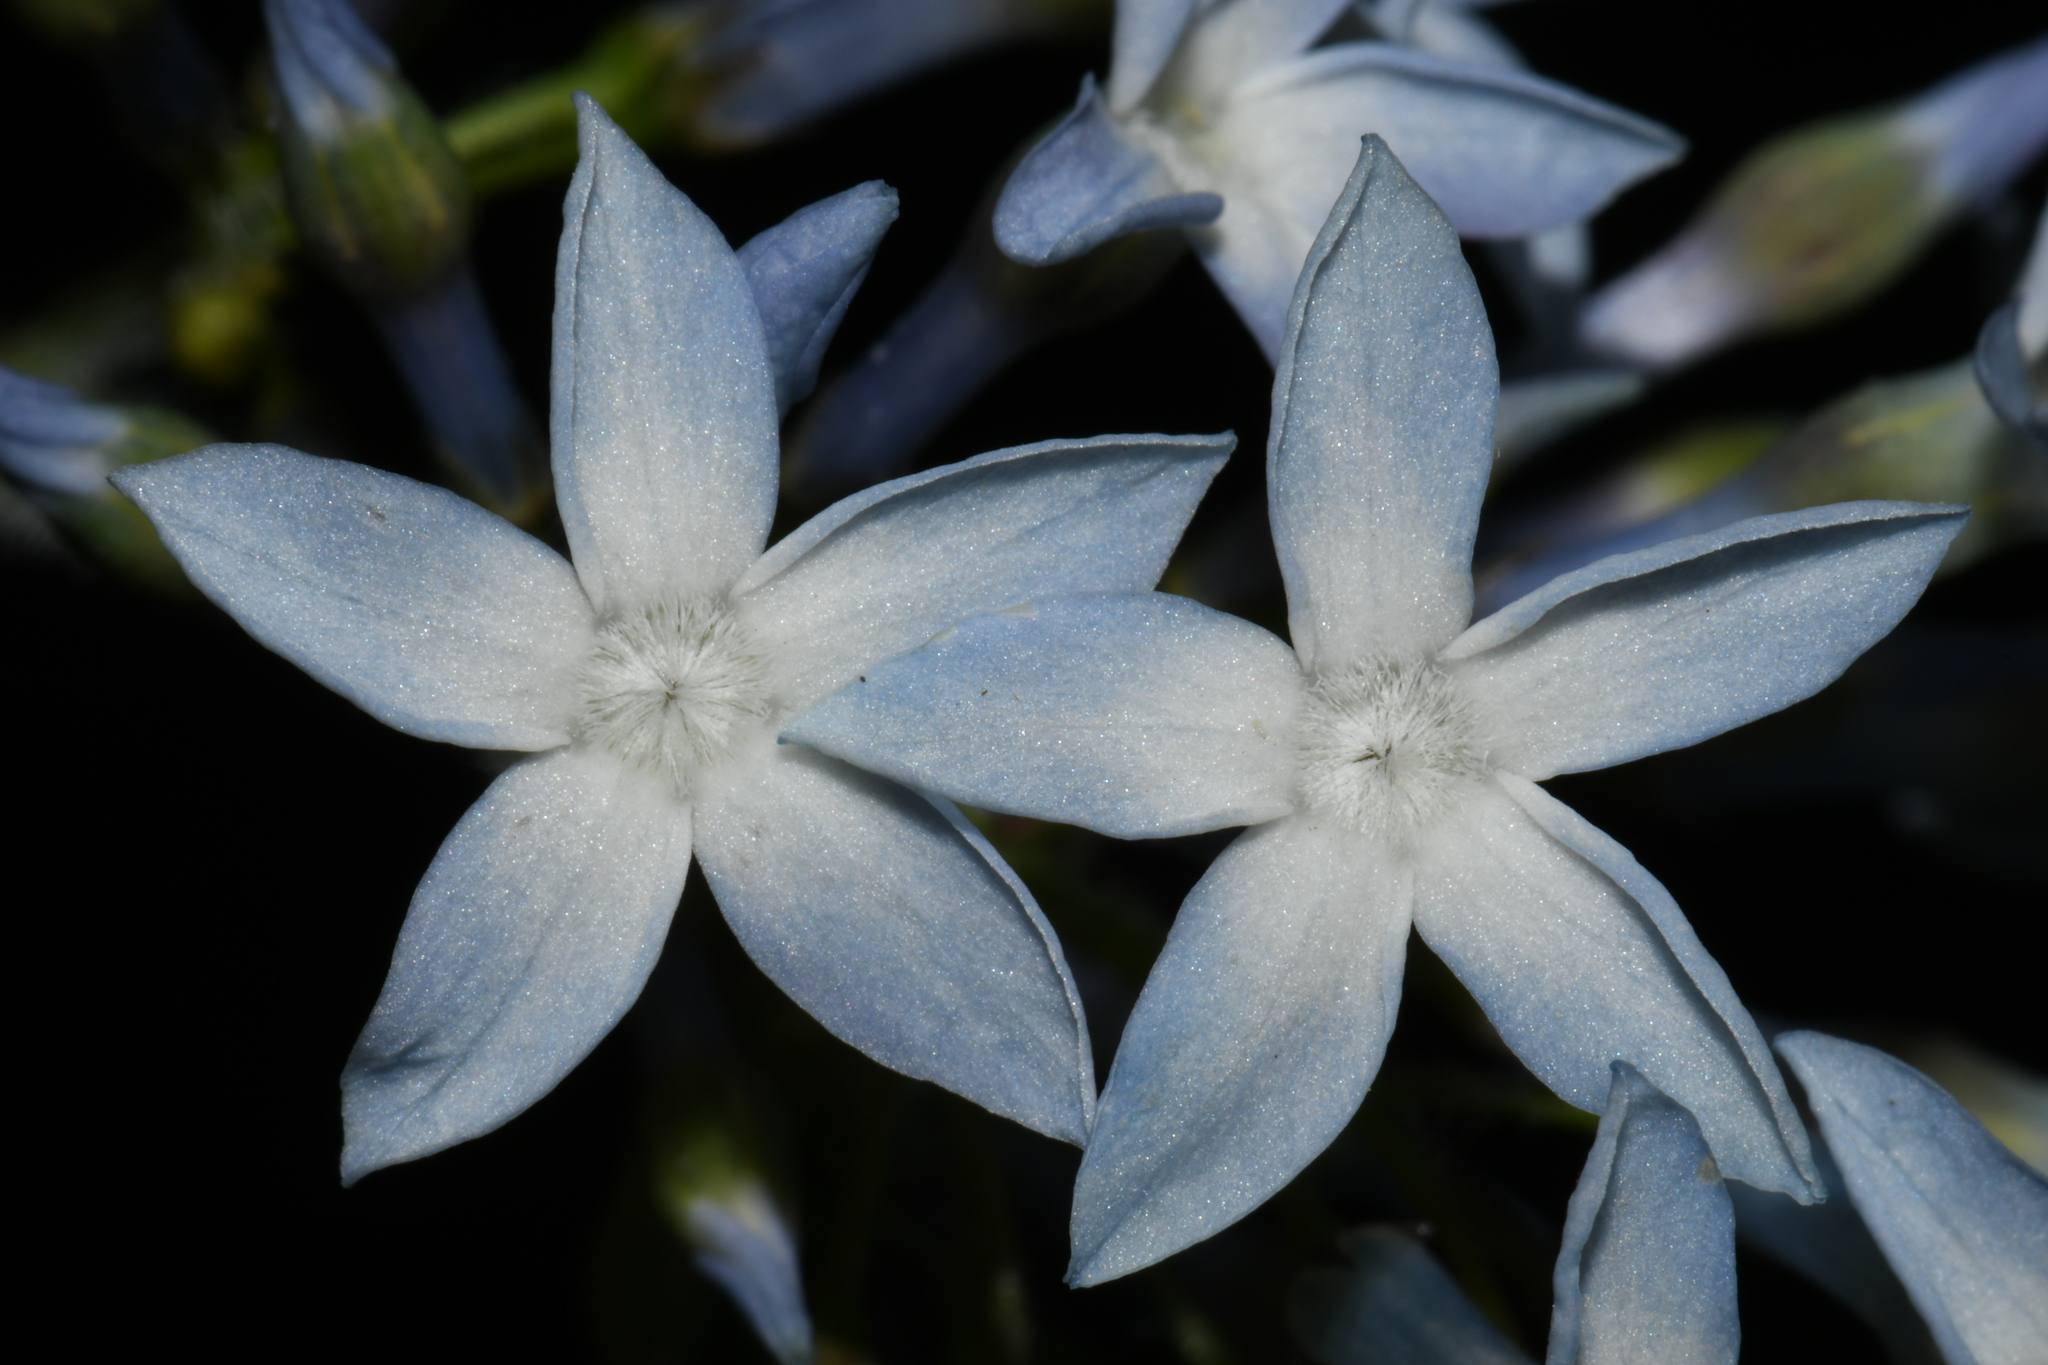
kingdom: Plantae
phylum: Tracheophyta
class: Magnoliopsida
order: Gentianales
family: Apocynaceae
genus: Amsonia
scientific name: Amsonia ciliata
